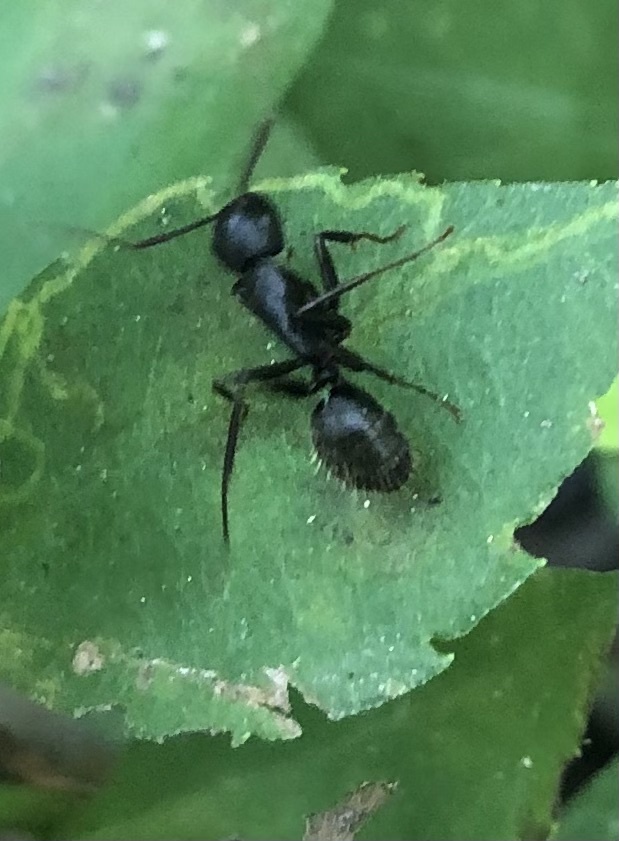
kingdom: Animalia
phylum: Arthropoda
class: Insecta
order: Hymenoptera
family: Formicidae
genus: Camponotus
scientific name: Camponotus pennsylvanicus
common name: Black carpenter ant
